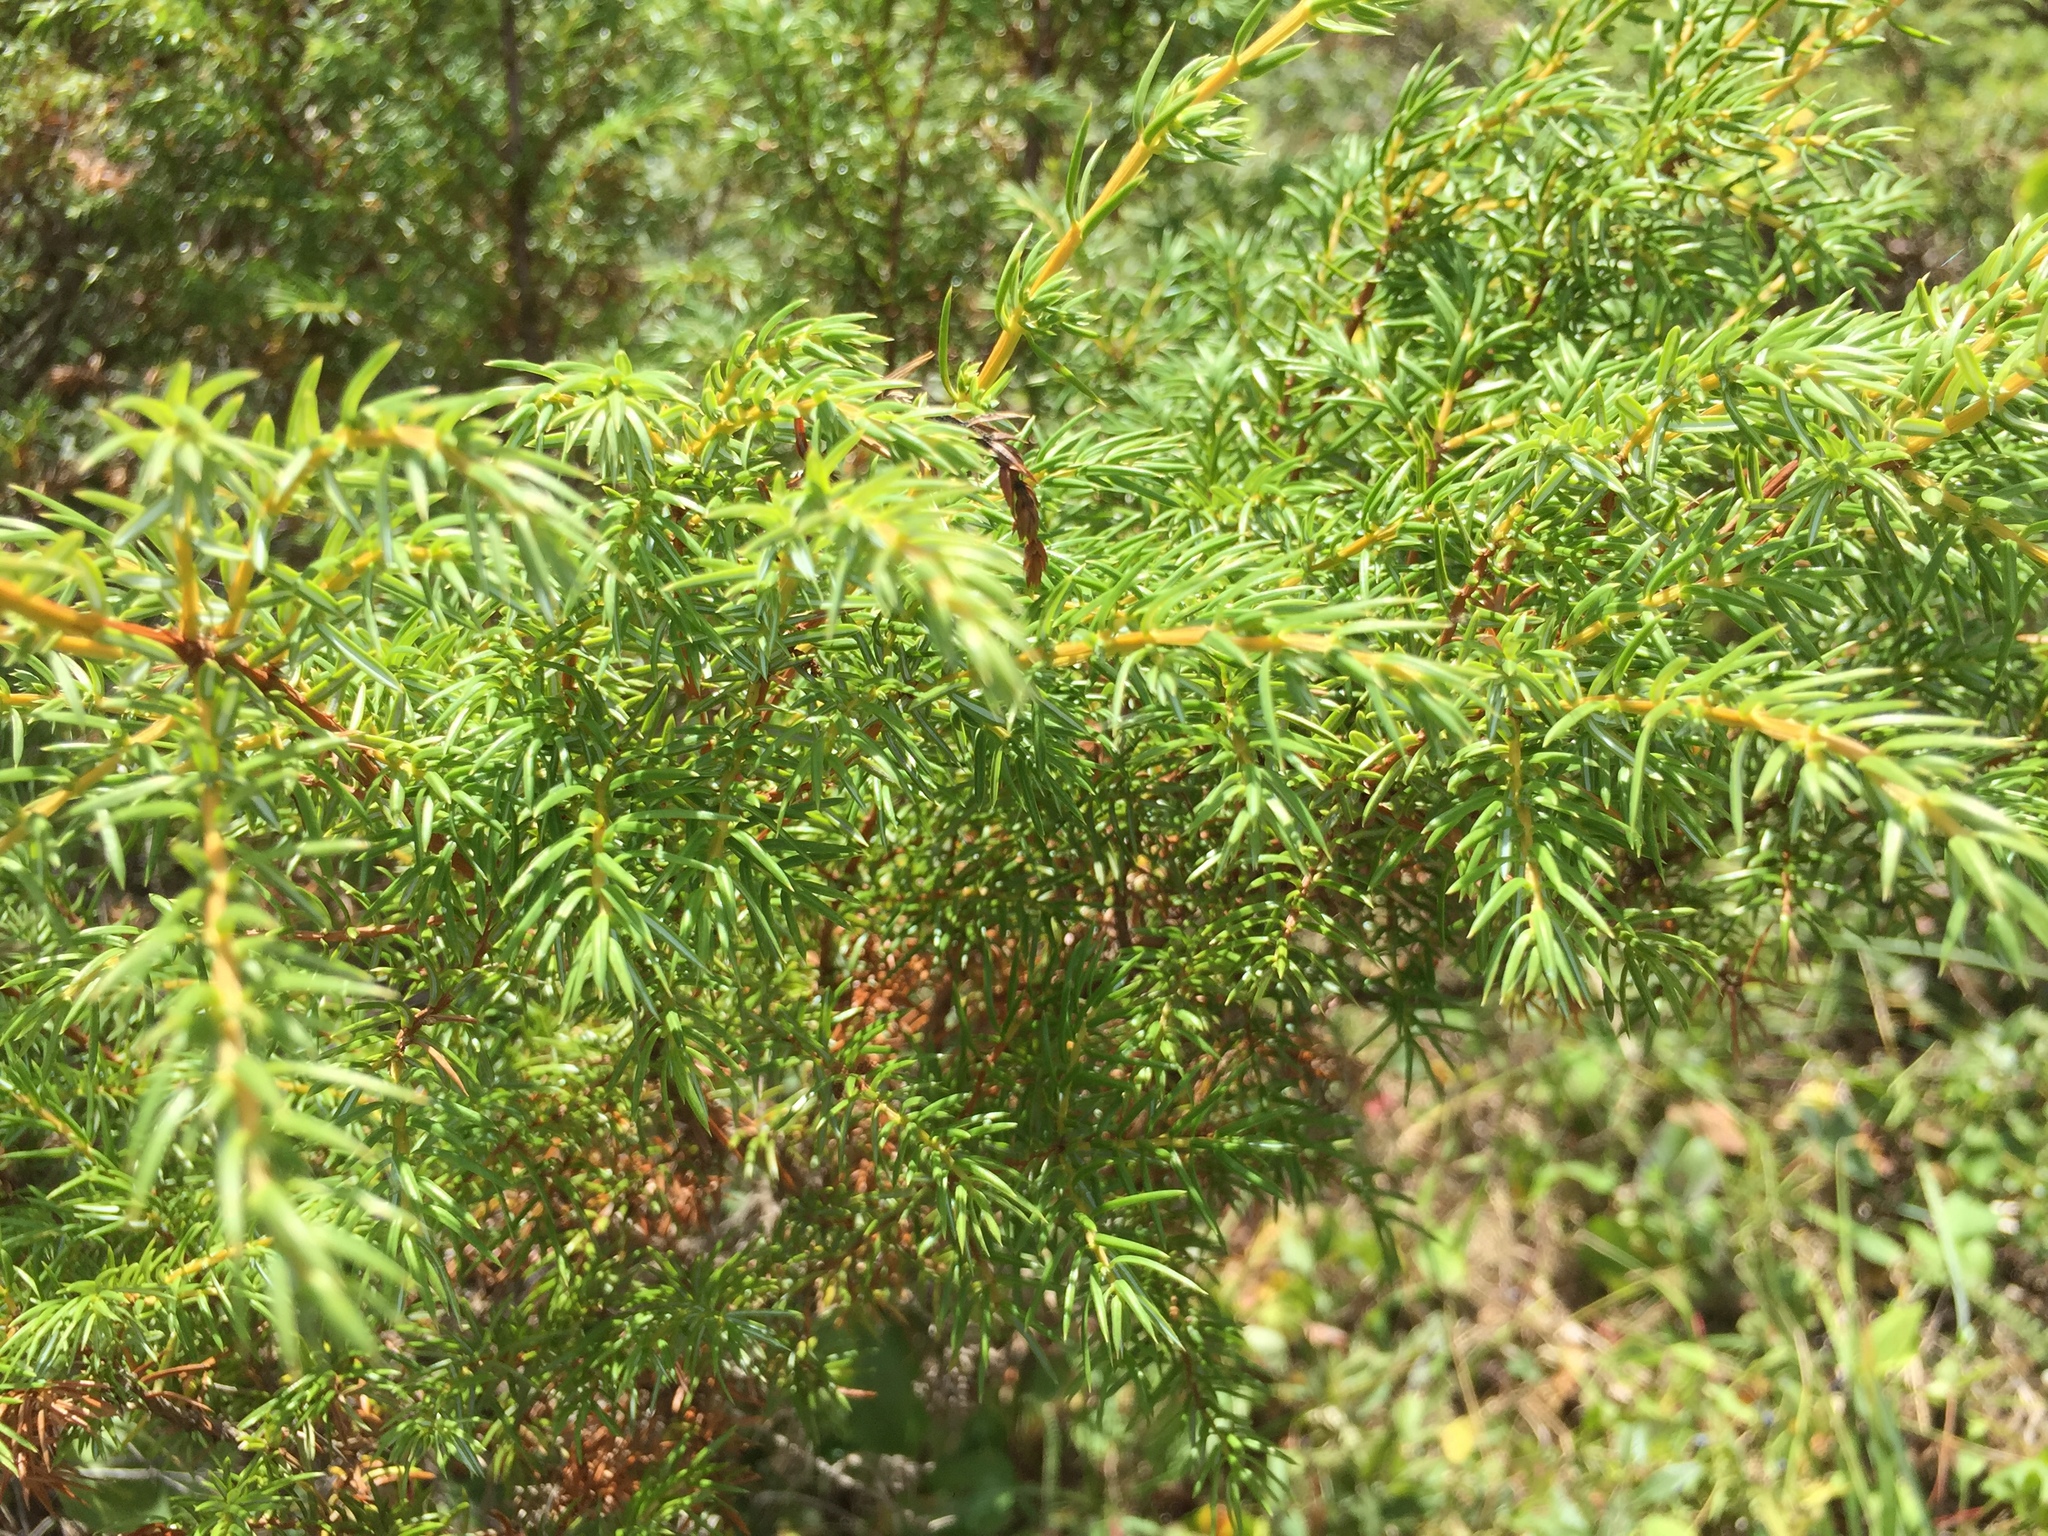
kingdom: Plantae
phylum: Tracheophyta
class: Pinopsida
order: Pinales
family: Cupressaceae
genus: Juniperus
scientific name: Juniperus communis
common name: Common juniper
